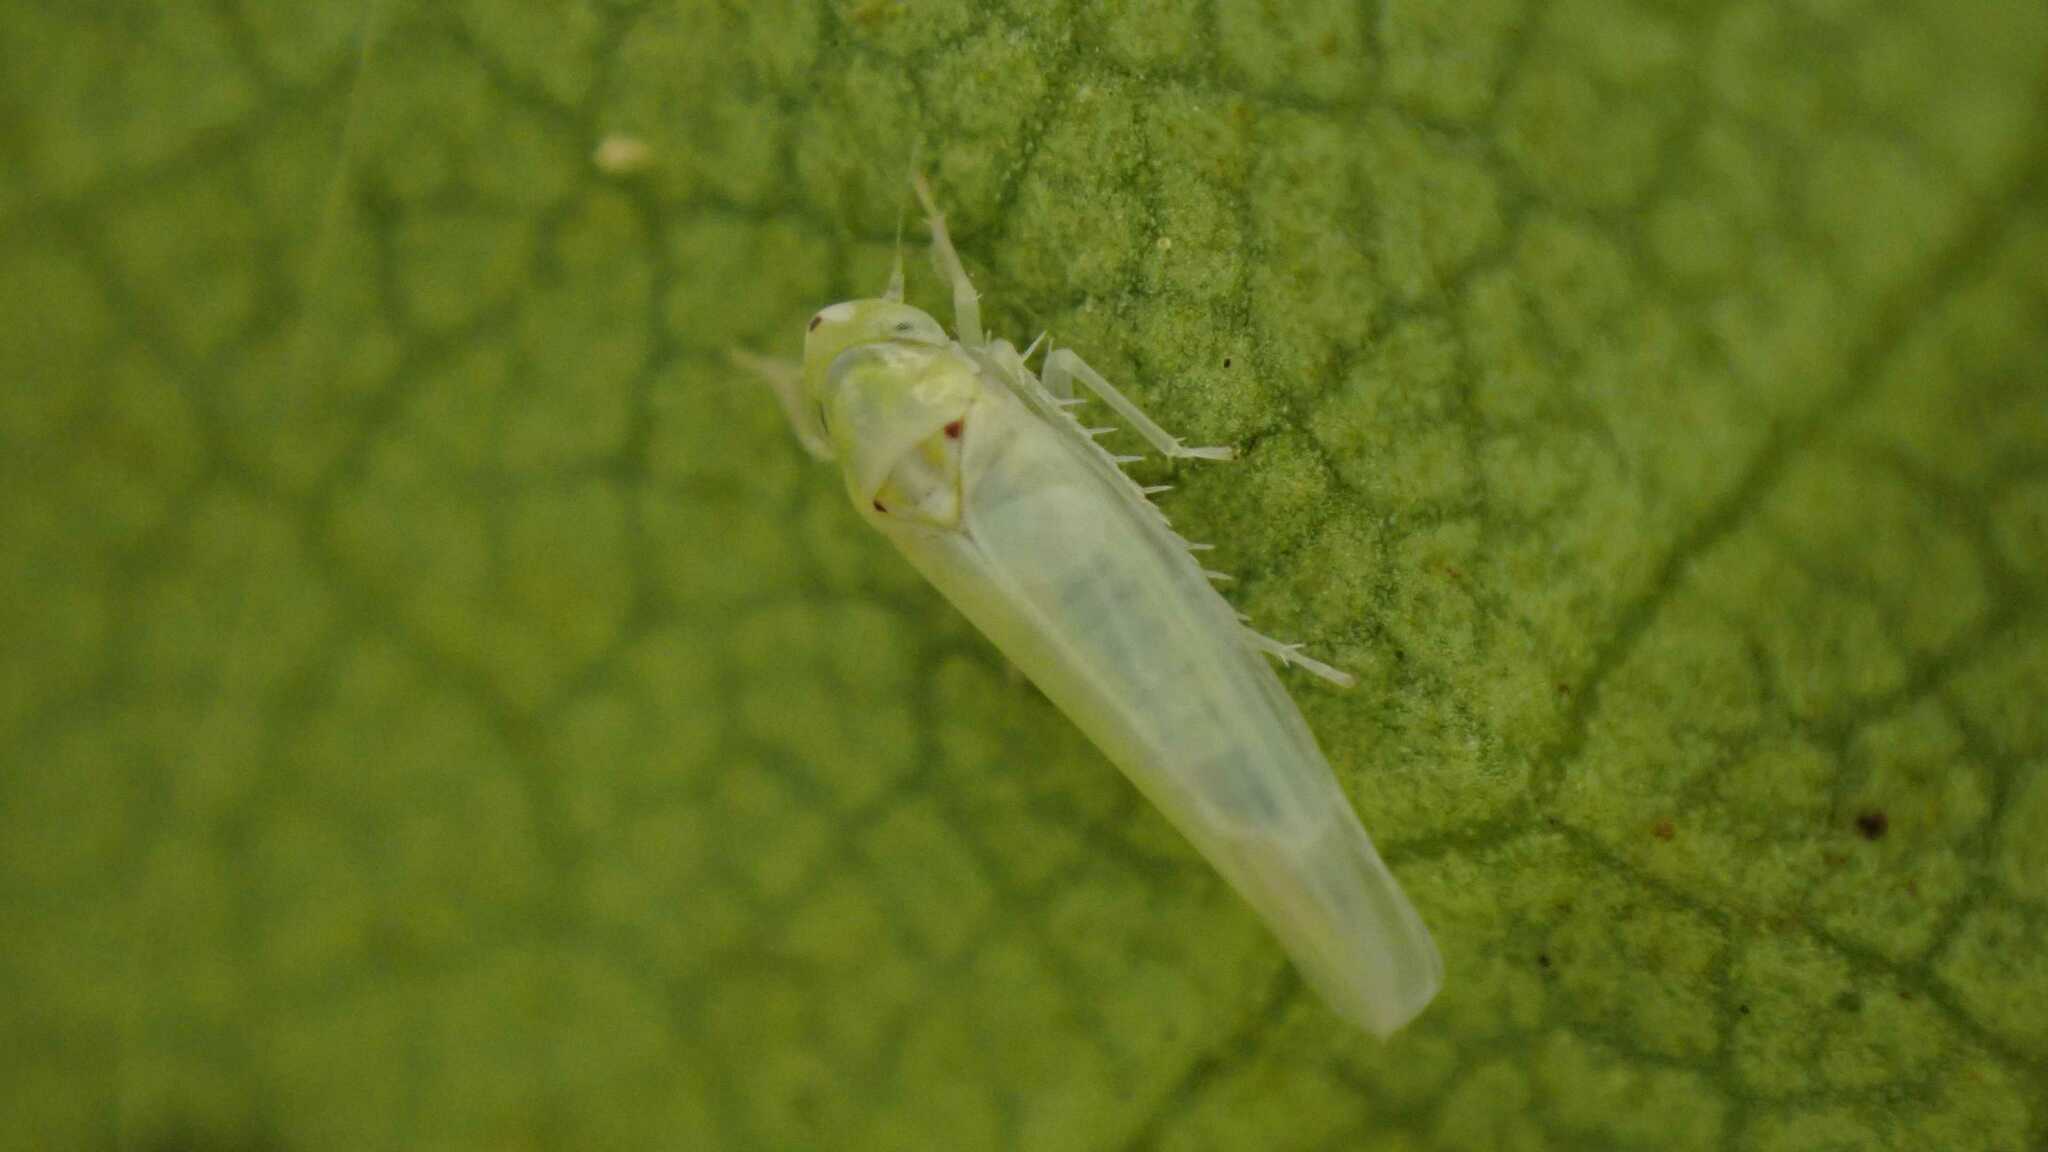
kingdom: Animalia
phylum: Arthropoda
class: Insecta
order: Hemiptera
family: Cicadellidae
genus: Zygina
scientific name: Zygina nivea
